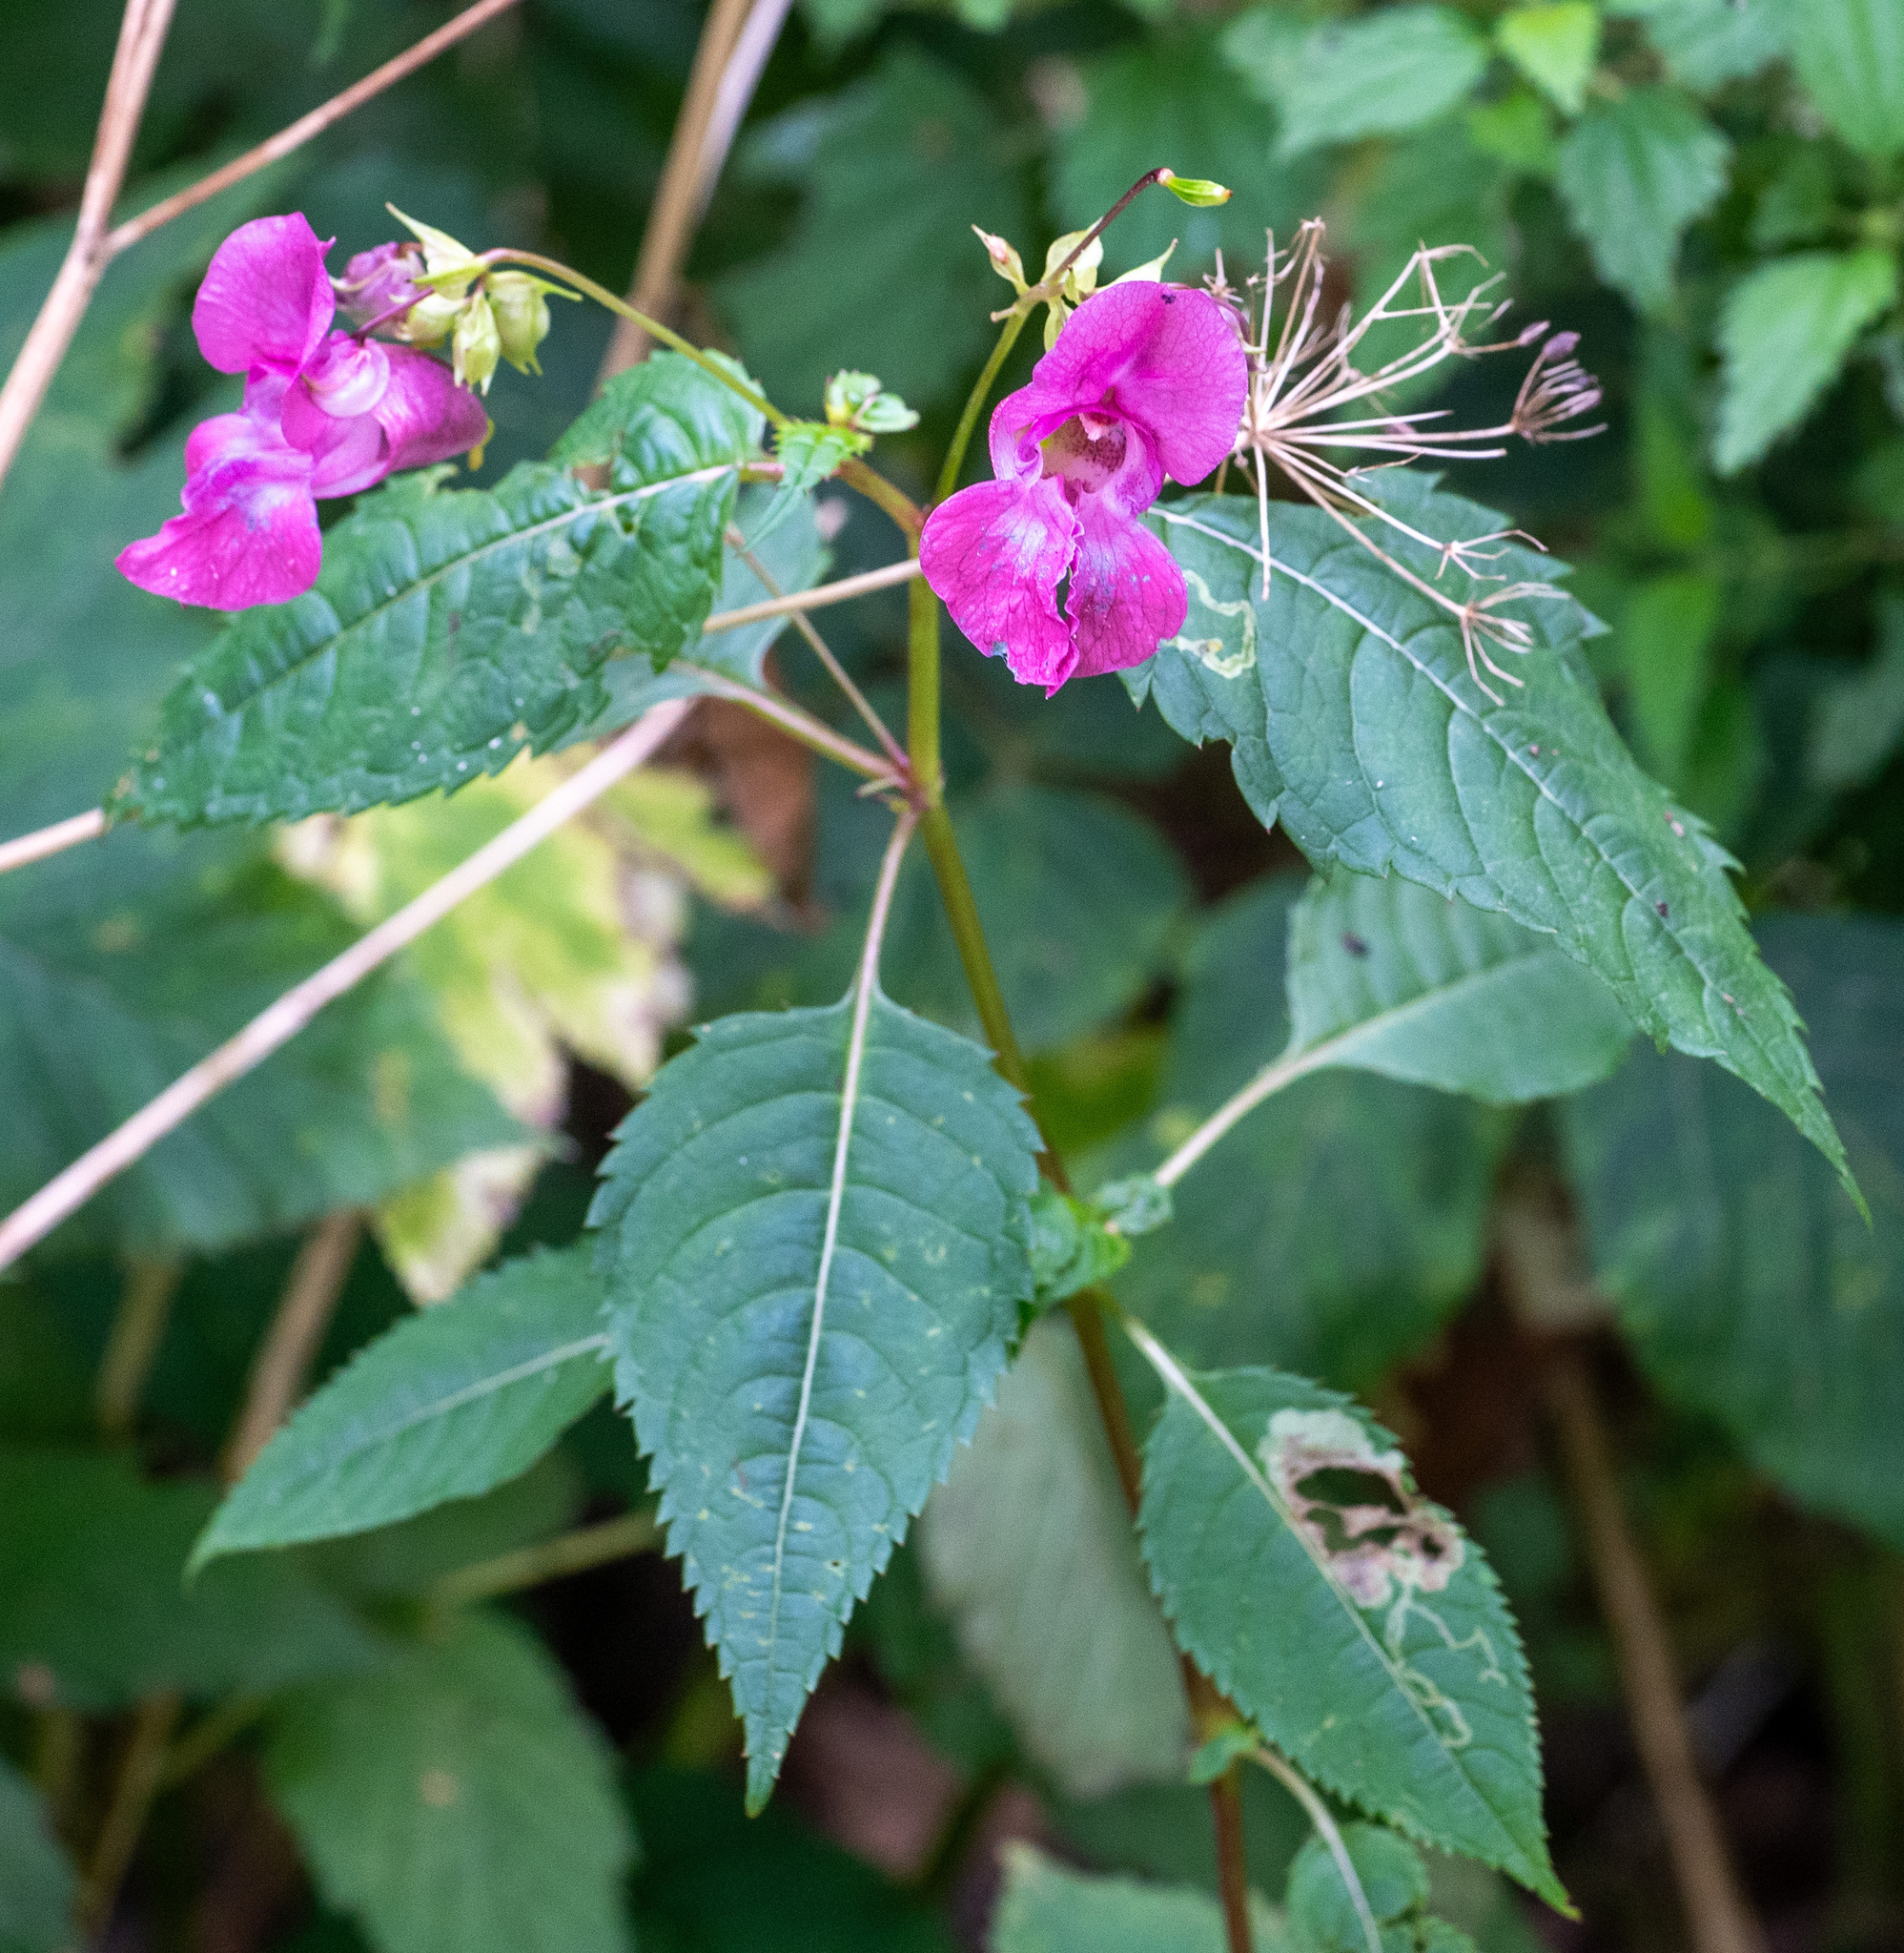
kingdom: Plantae
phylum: Tracheophyta
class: Magnoliopsida
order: Ericales
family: Balsaminaceae
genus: Impatiens
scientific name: Impatiens glandulifera
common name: Himalayan balsam
